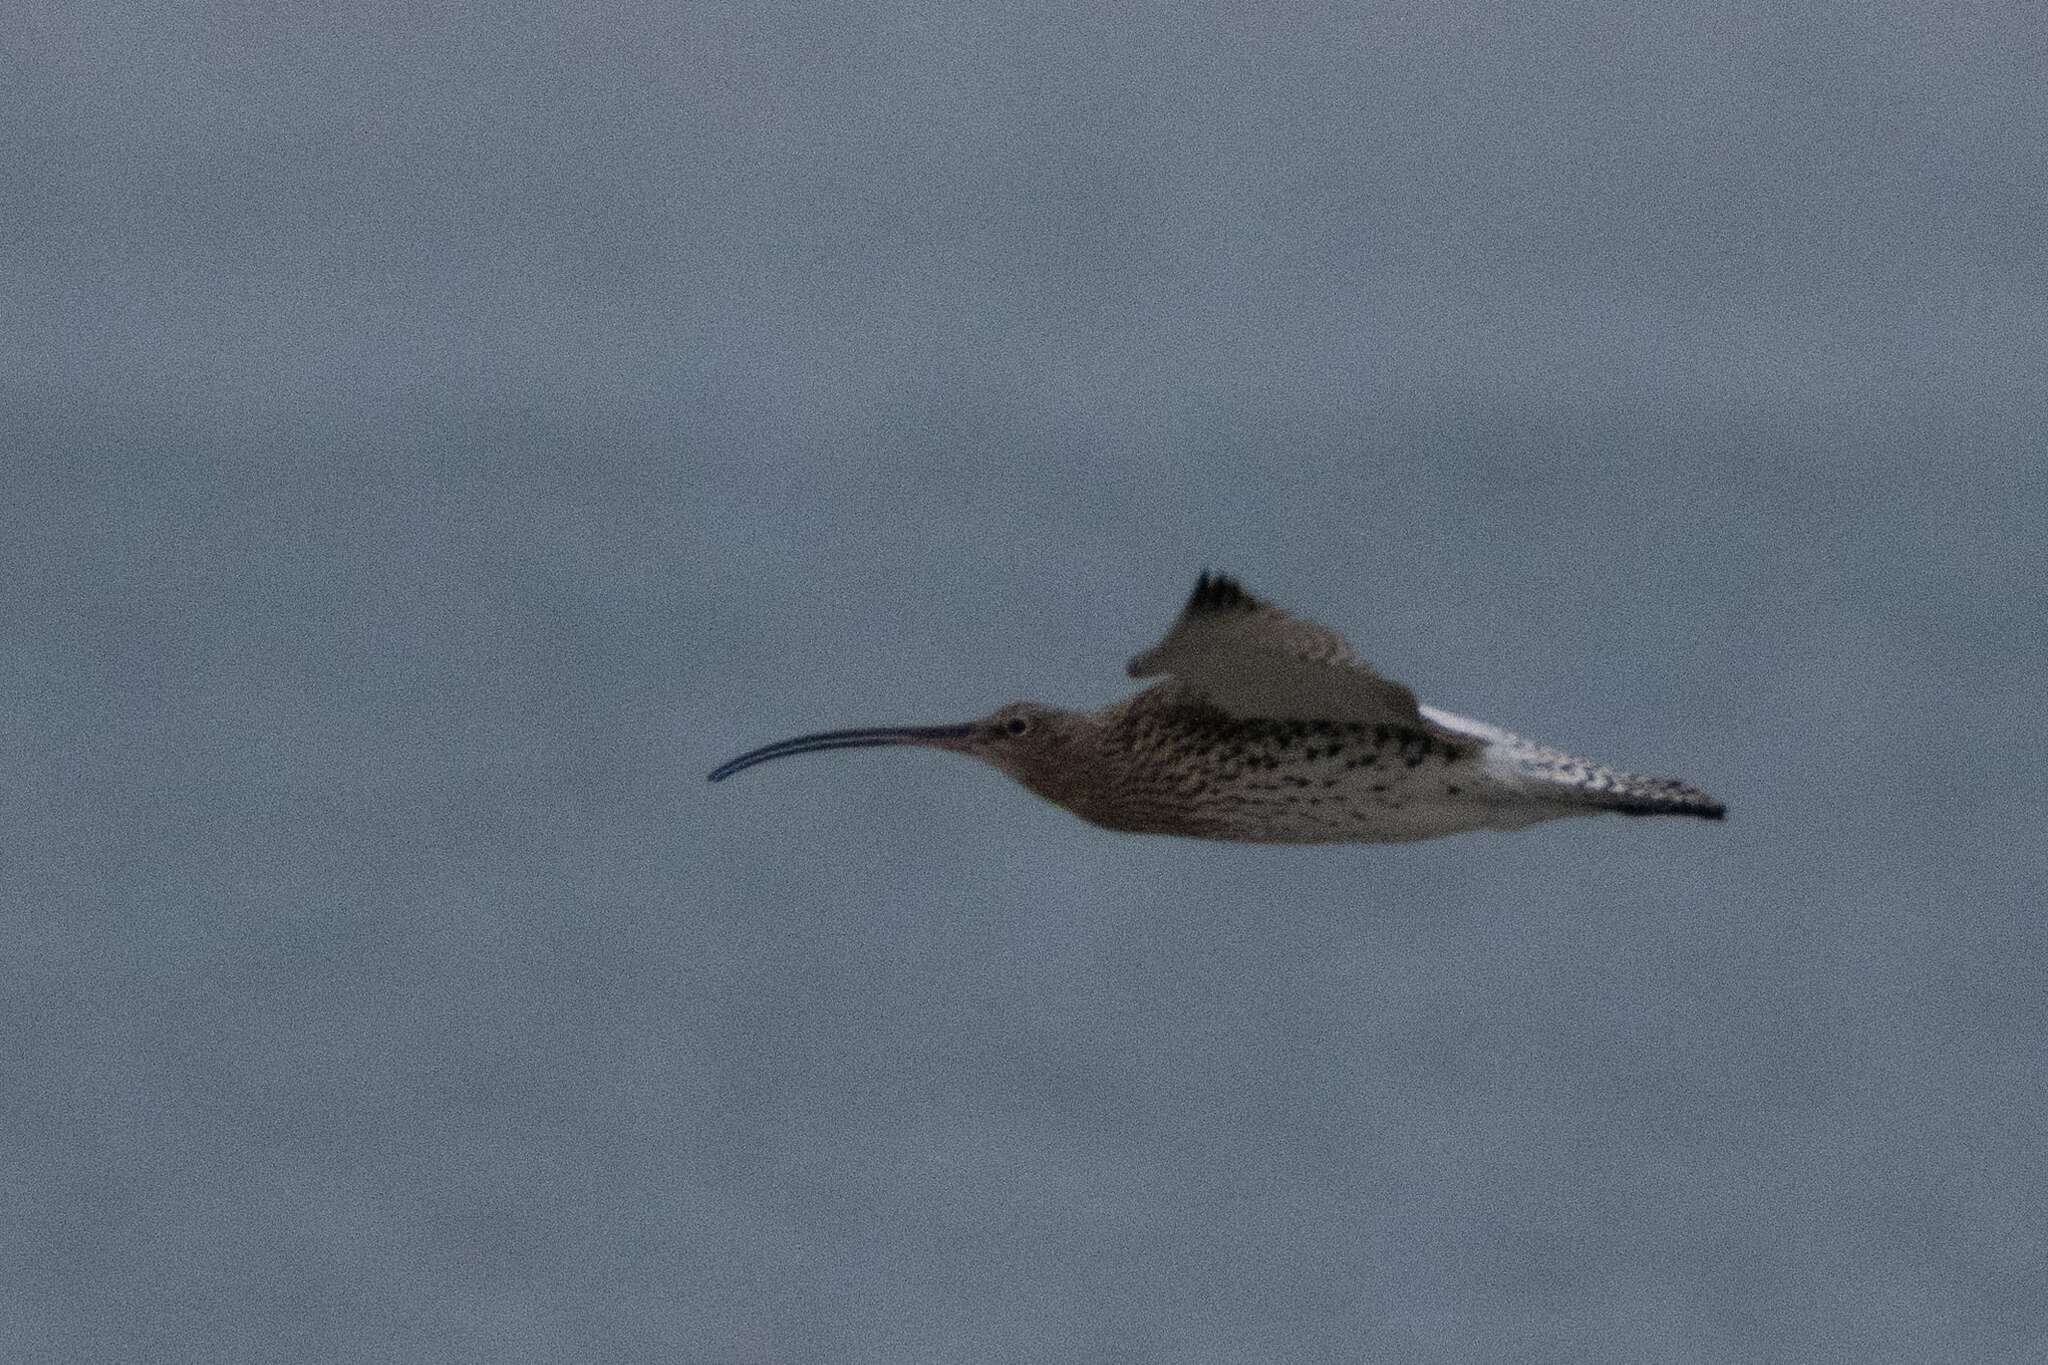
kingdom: Animalia
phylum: Chordata
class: Aves
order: Charadriiformes
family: Scolopacidae
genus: Numenius
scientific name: Numenius arquata
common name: Eurasian curlew
